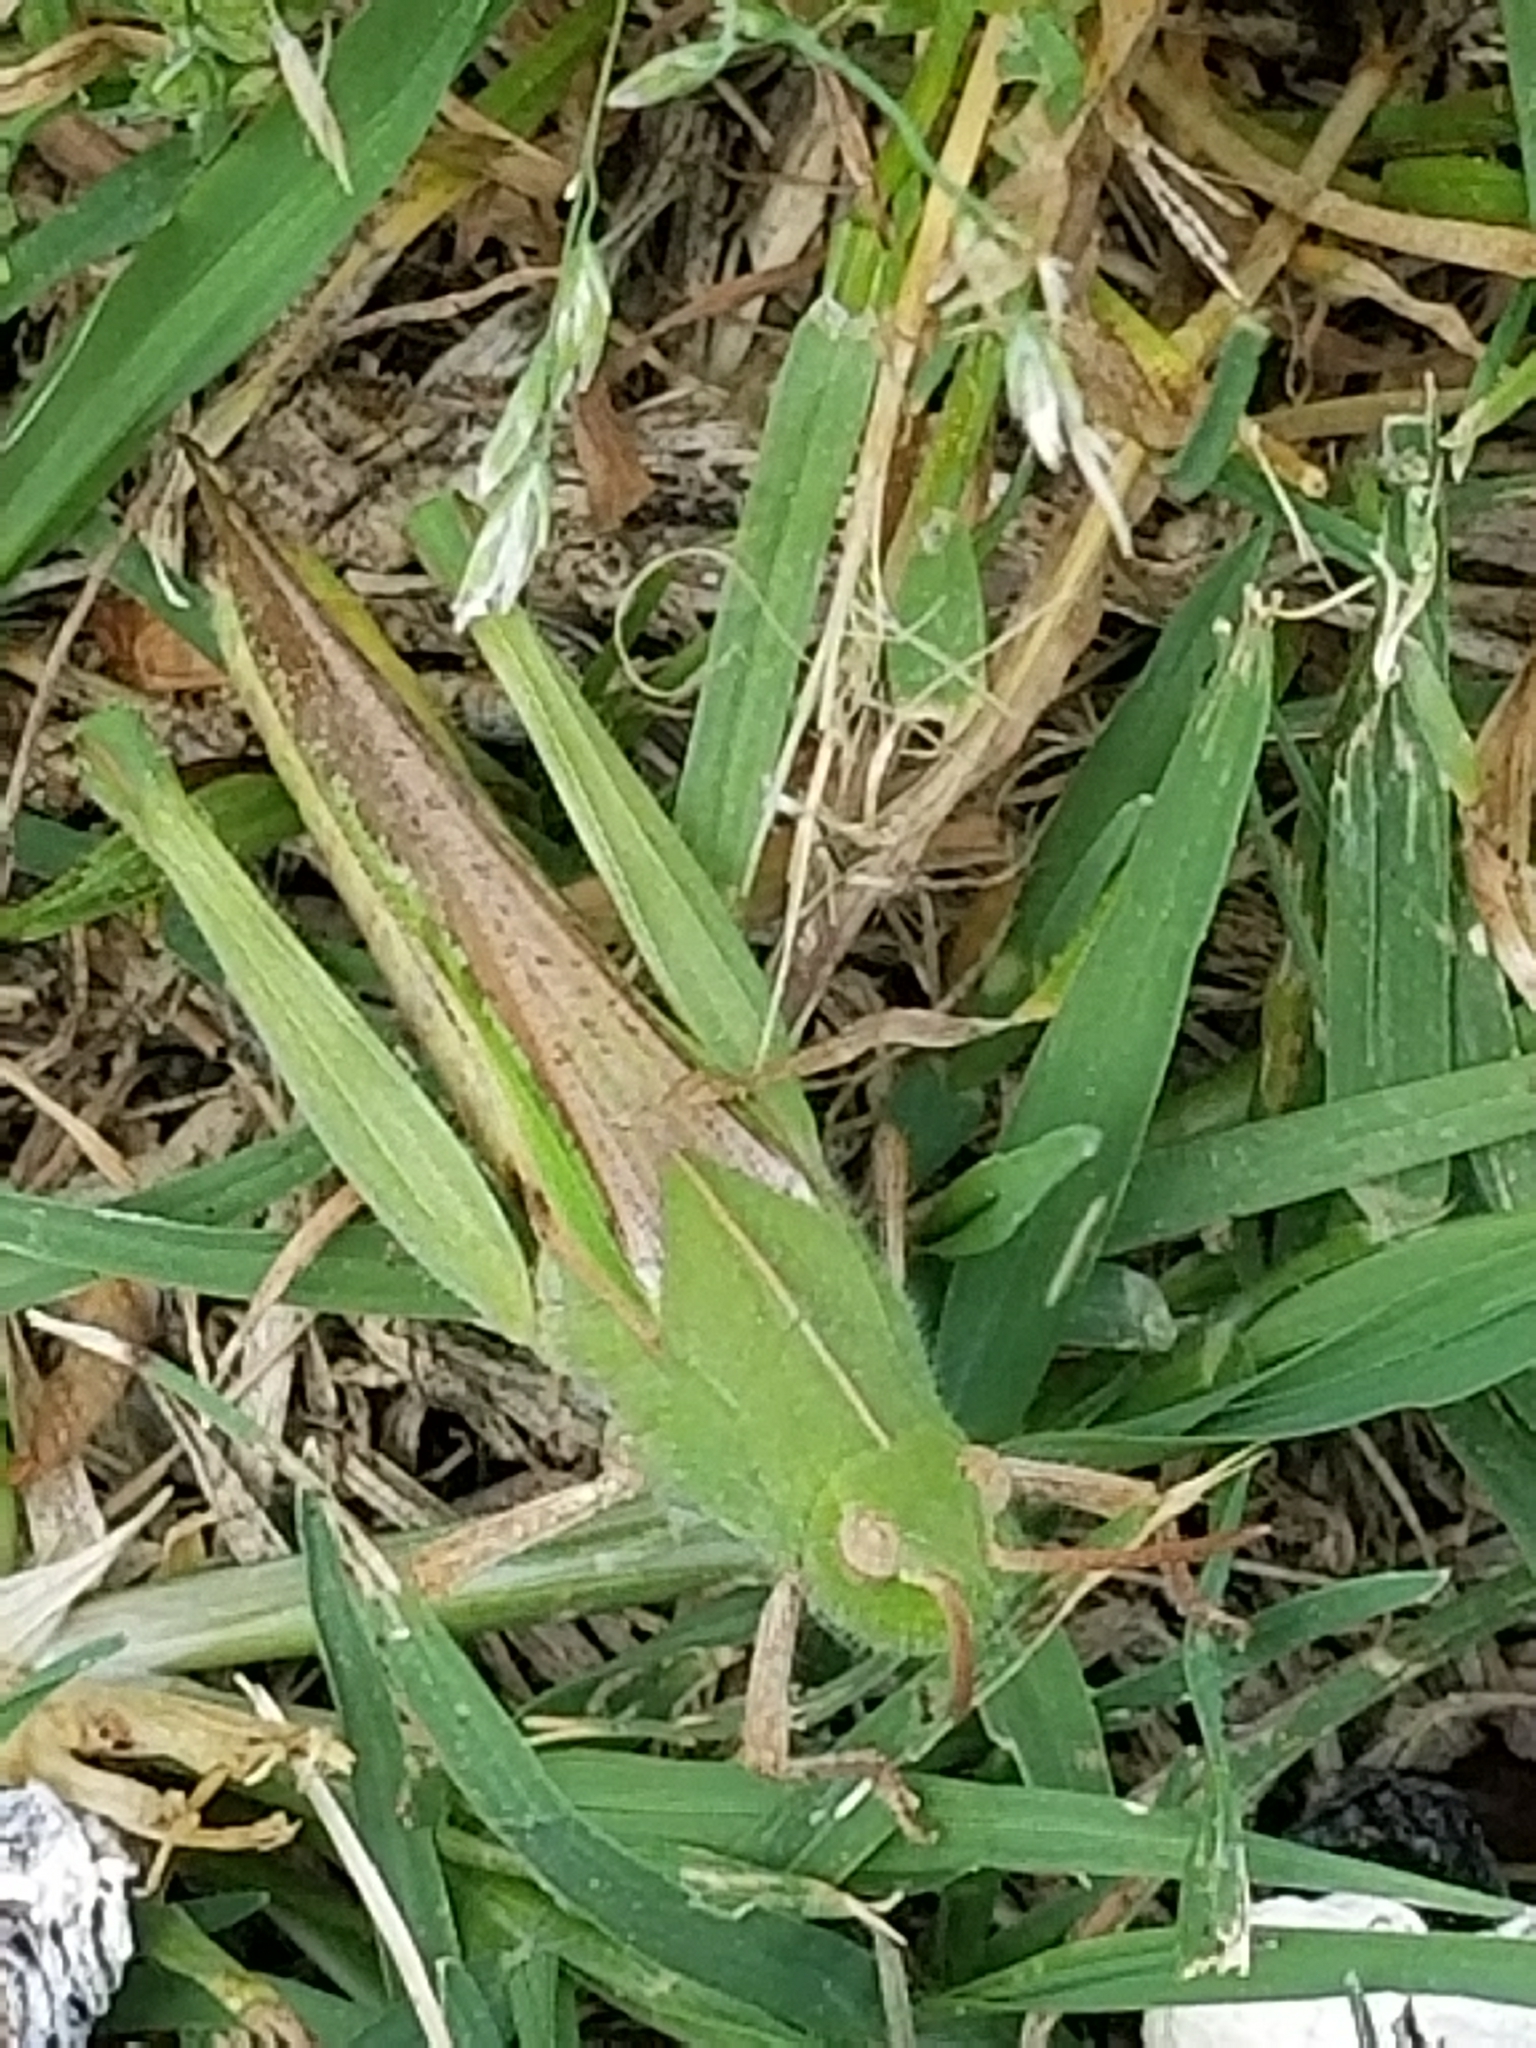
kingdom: Animalia
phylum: Arthropoda
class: Insecta
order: Orthoptera
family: Acrididae
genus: Chortophaga
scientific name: Chortophaga viridifasciata
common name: Green-striped grasshopper
